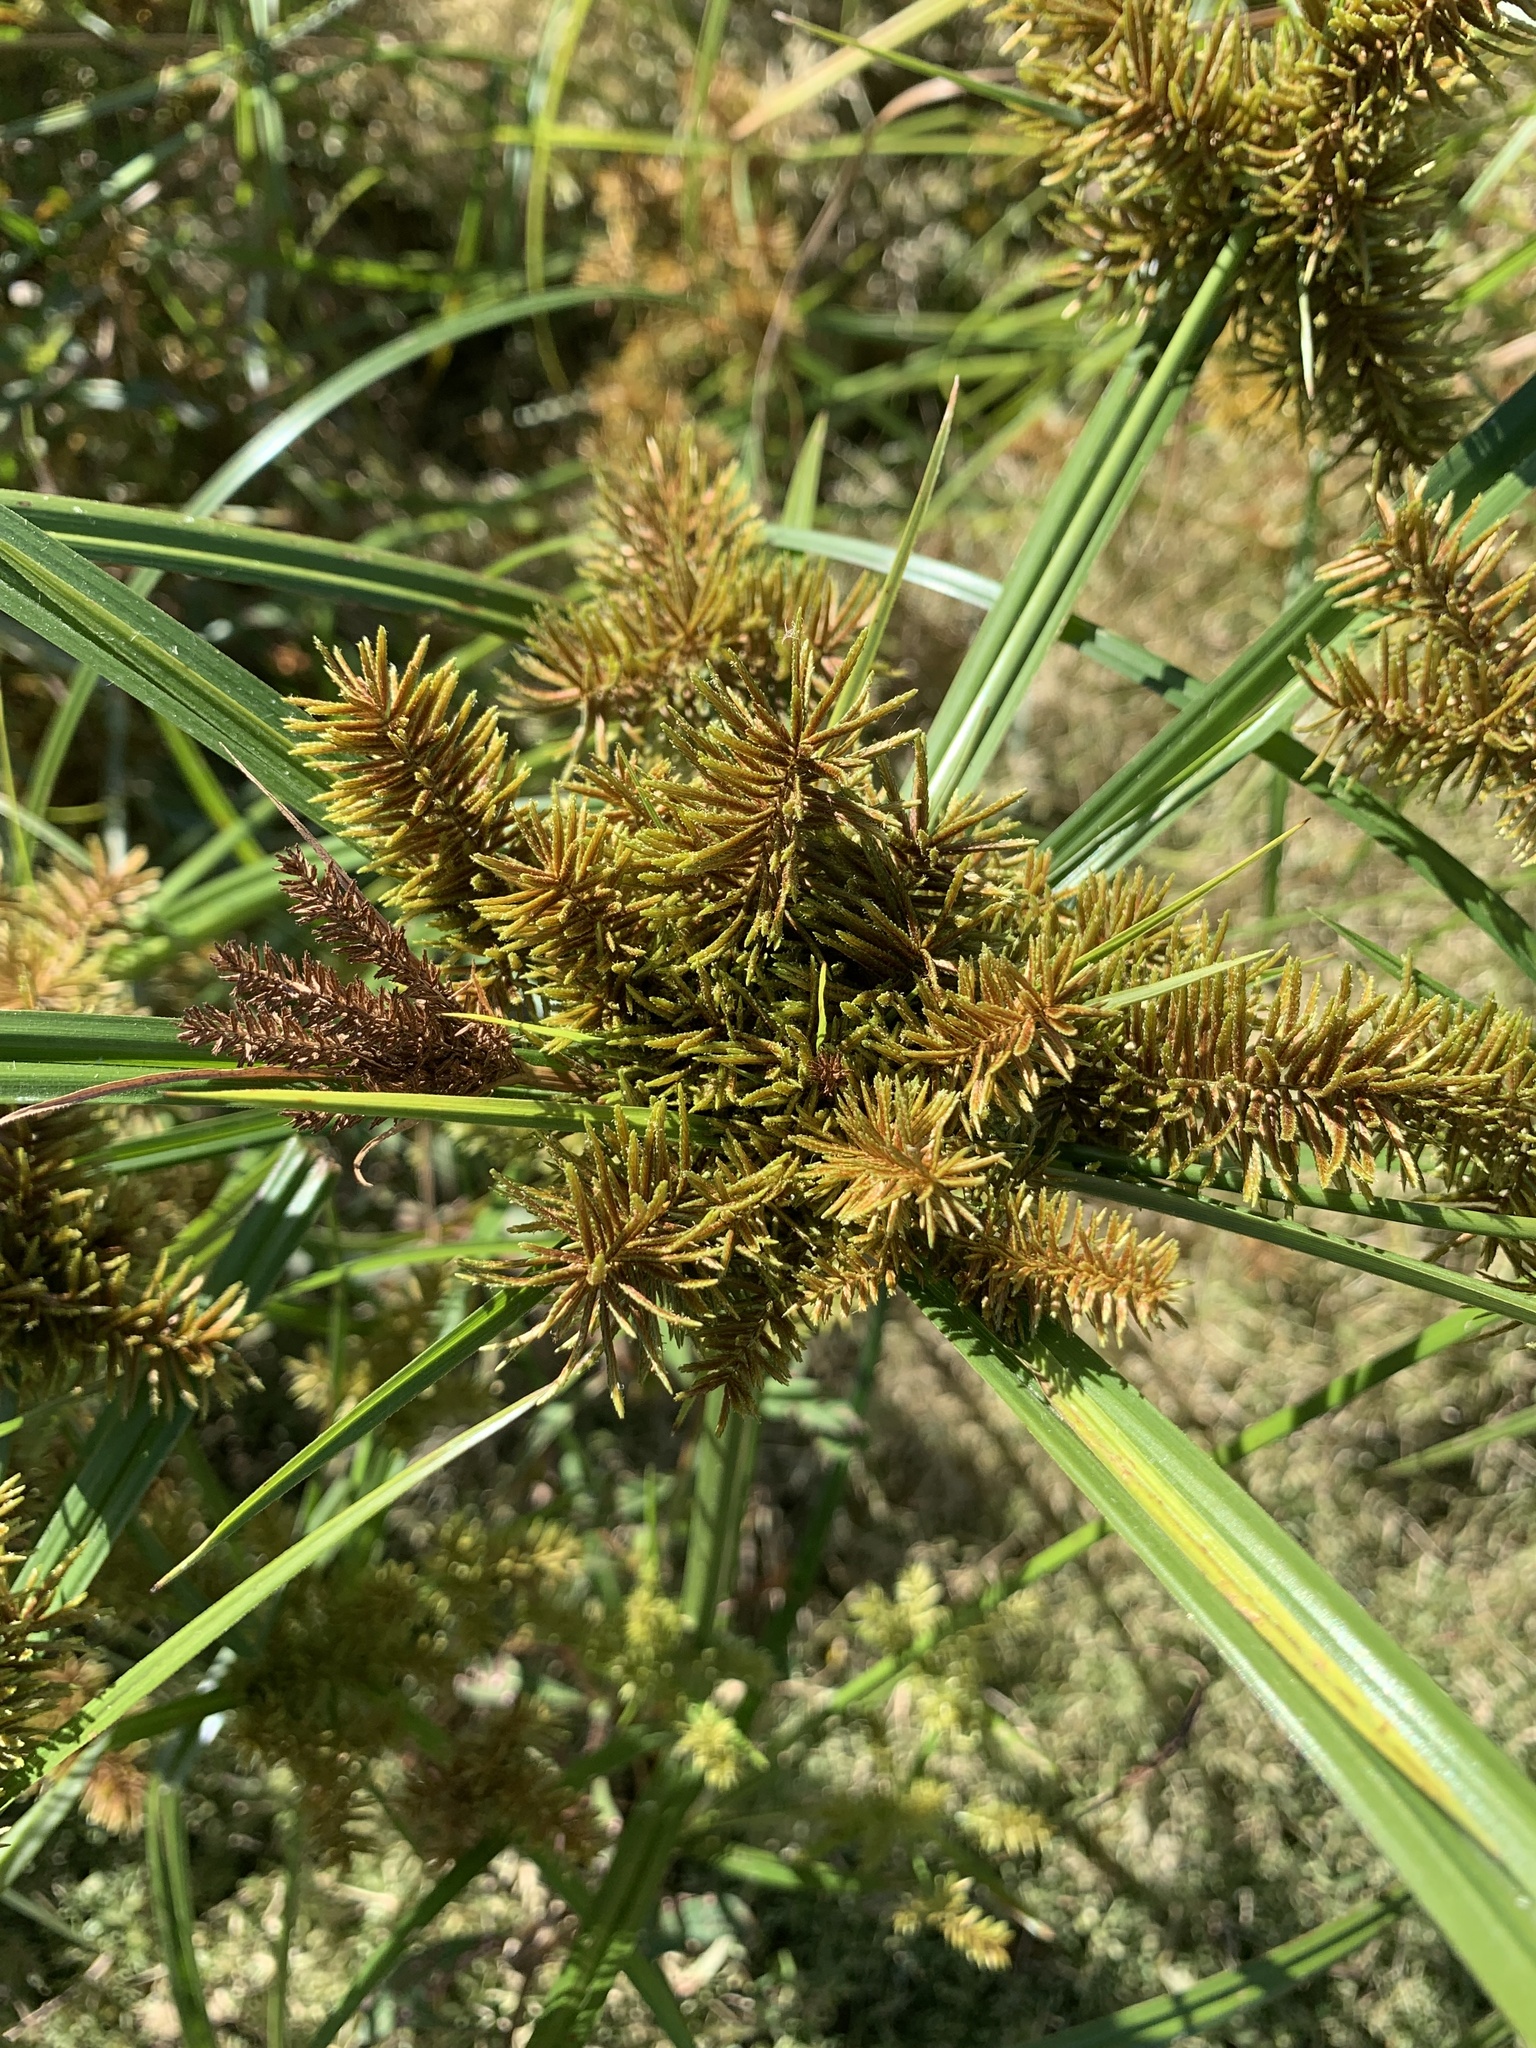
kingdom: Plantae
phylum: Tracheophyta
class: Liliopsida
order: Poales
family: Cyperaceae
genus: Cyperus
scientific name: Cyperus erythrorhizos
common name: Red-root flat sedge
